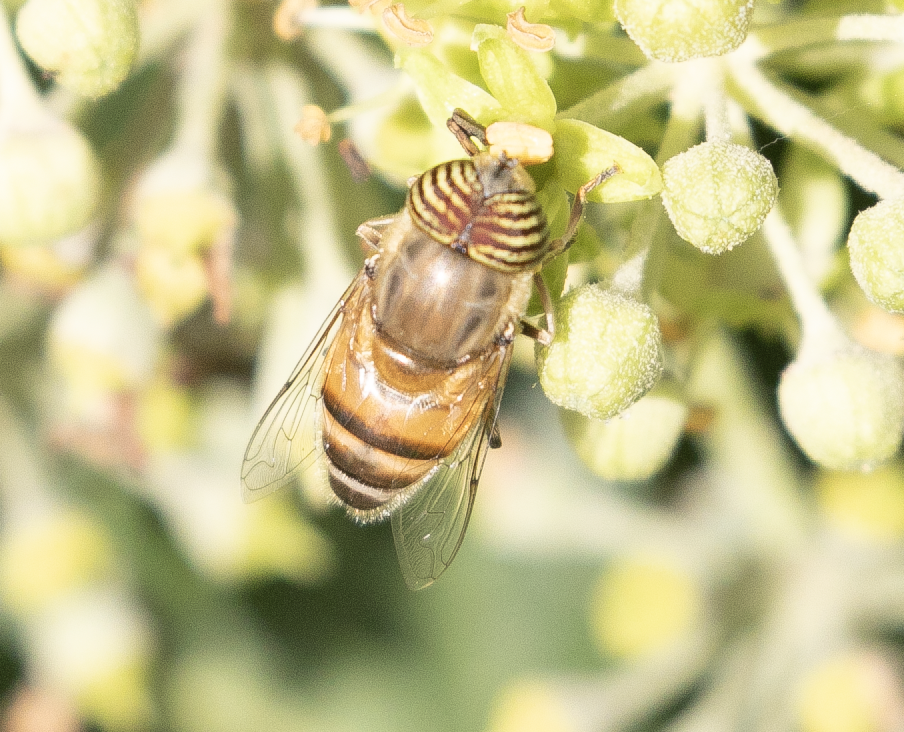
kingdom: Animalia
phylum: Arthropoda
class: Insecta
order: Diptera
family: Syrphidae
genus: Eristalinus
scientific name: Eristalinus taeniops
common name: Syrphid fly
